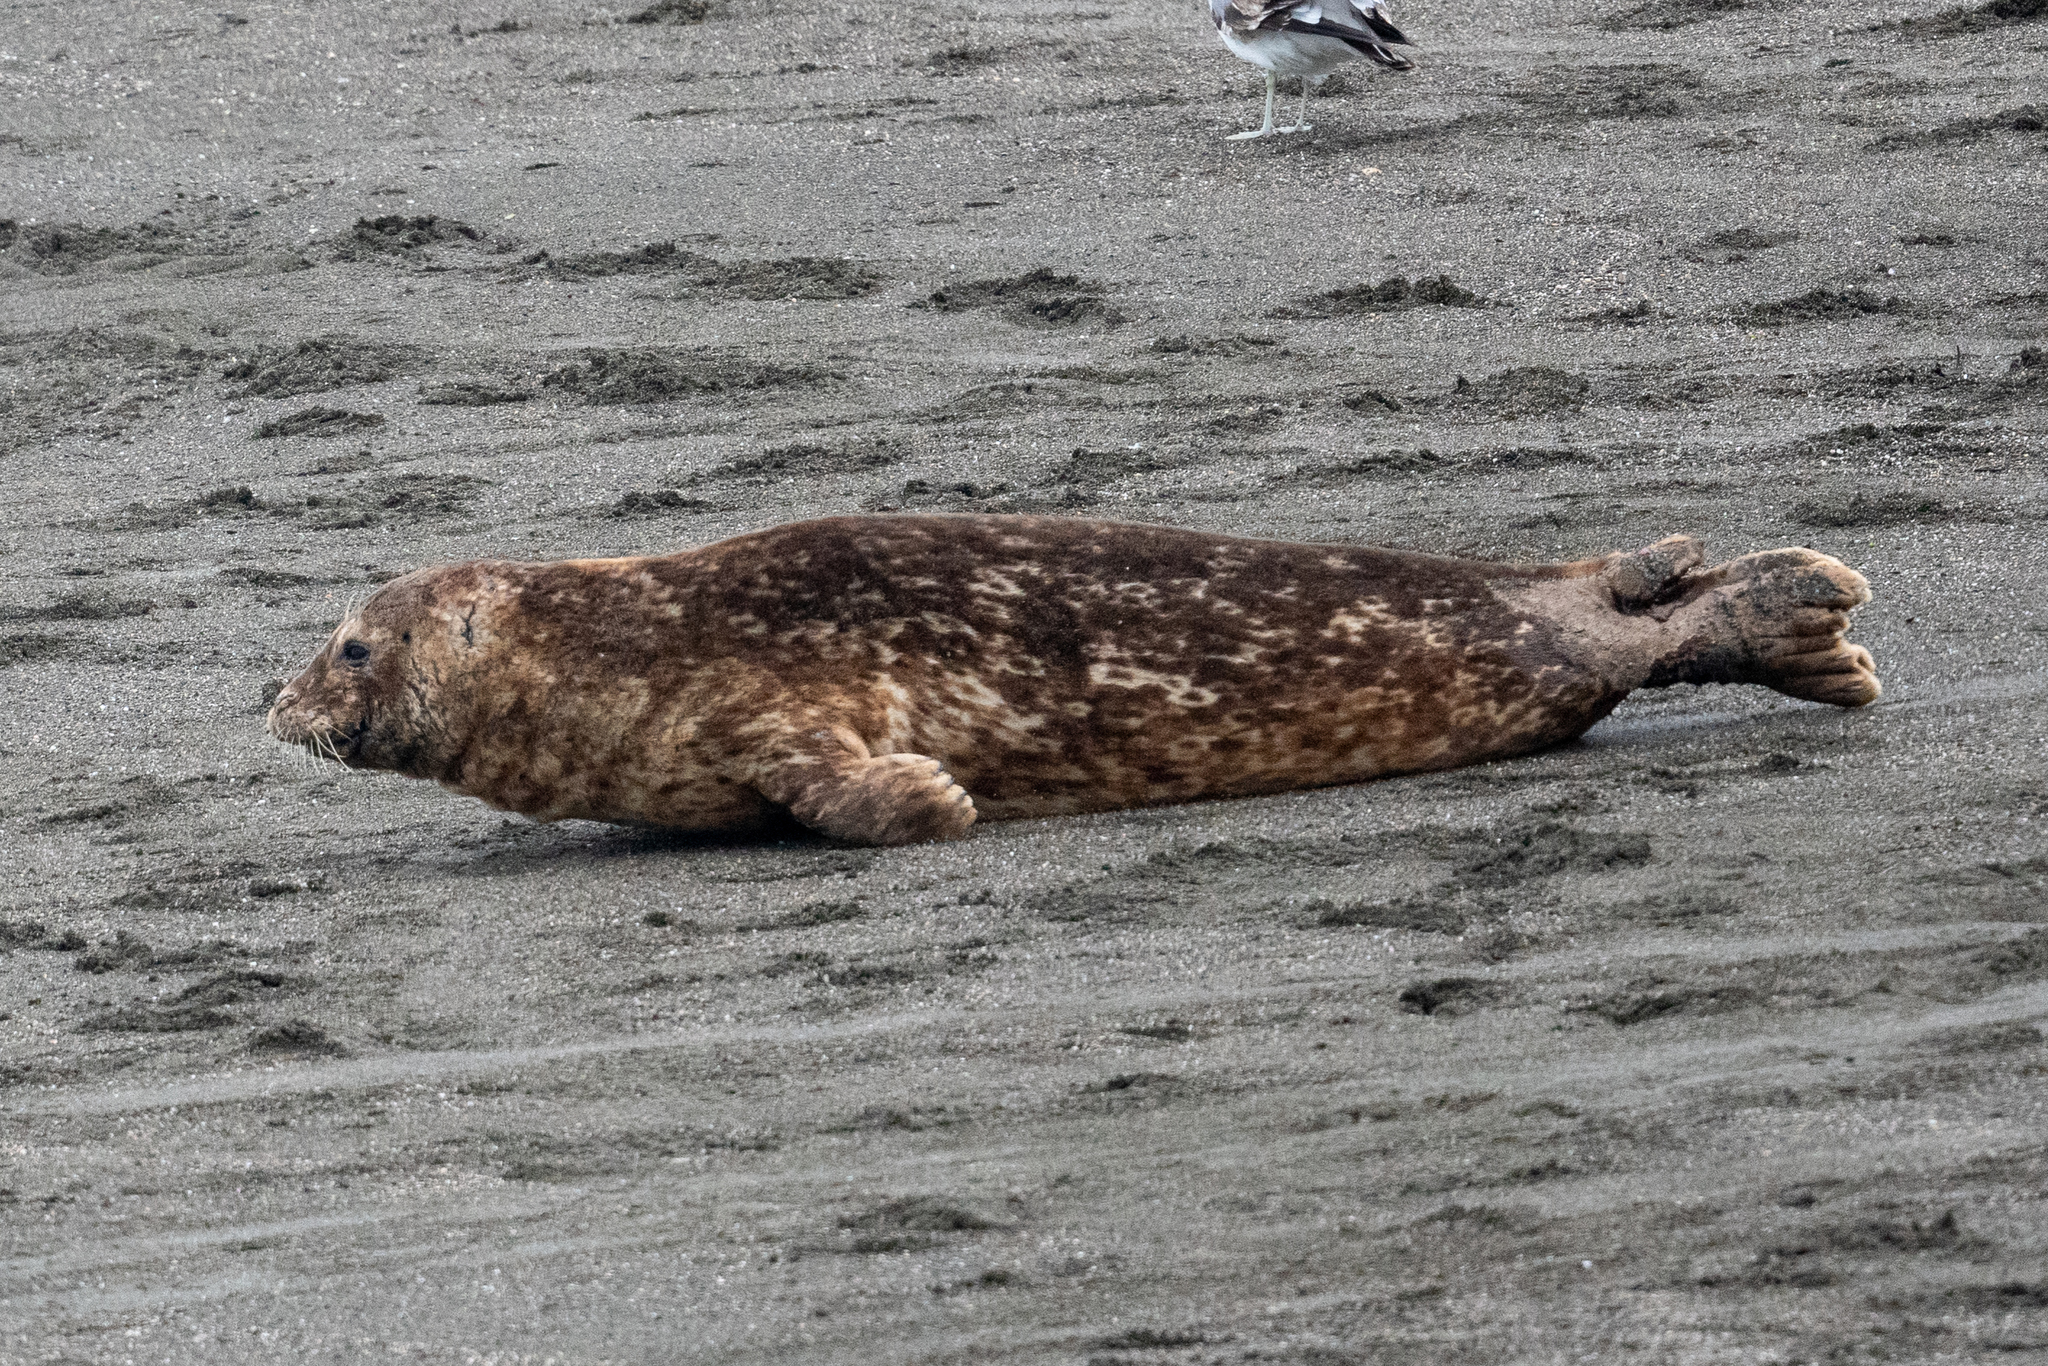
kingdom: Animalia
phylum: Chordata
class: Mammalia
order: Carnivora
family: Phocidae
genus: Phoca
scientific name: Phoca vitulina
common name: Harbor seal
